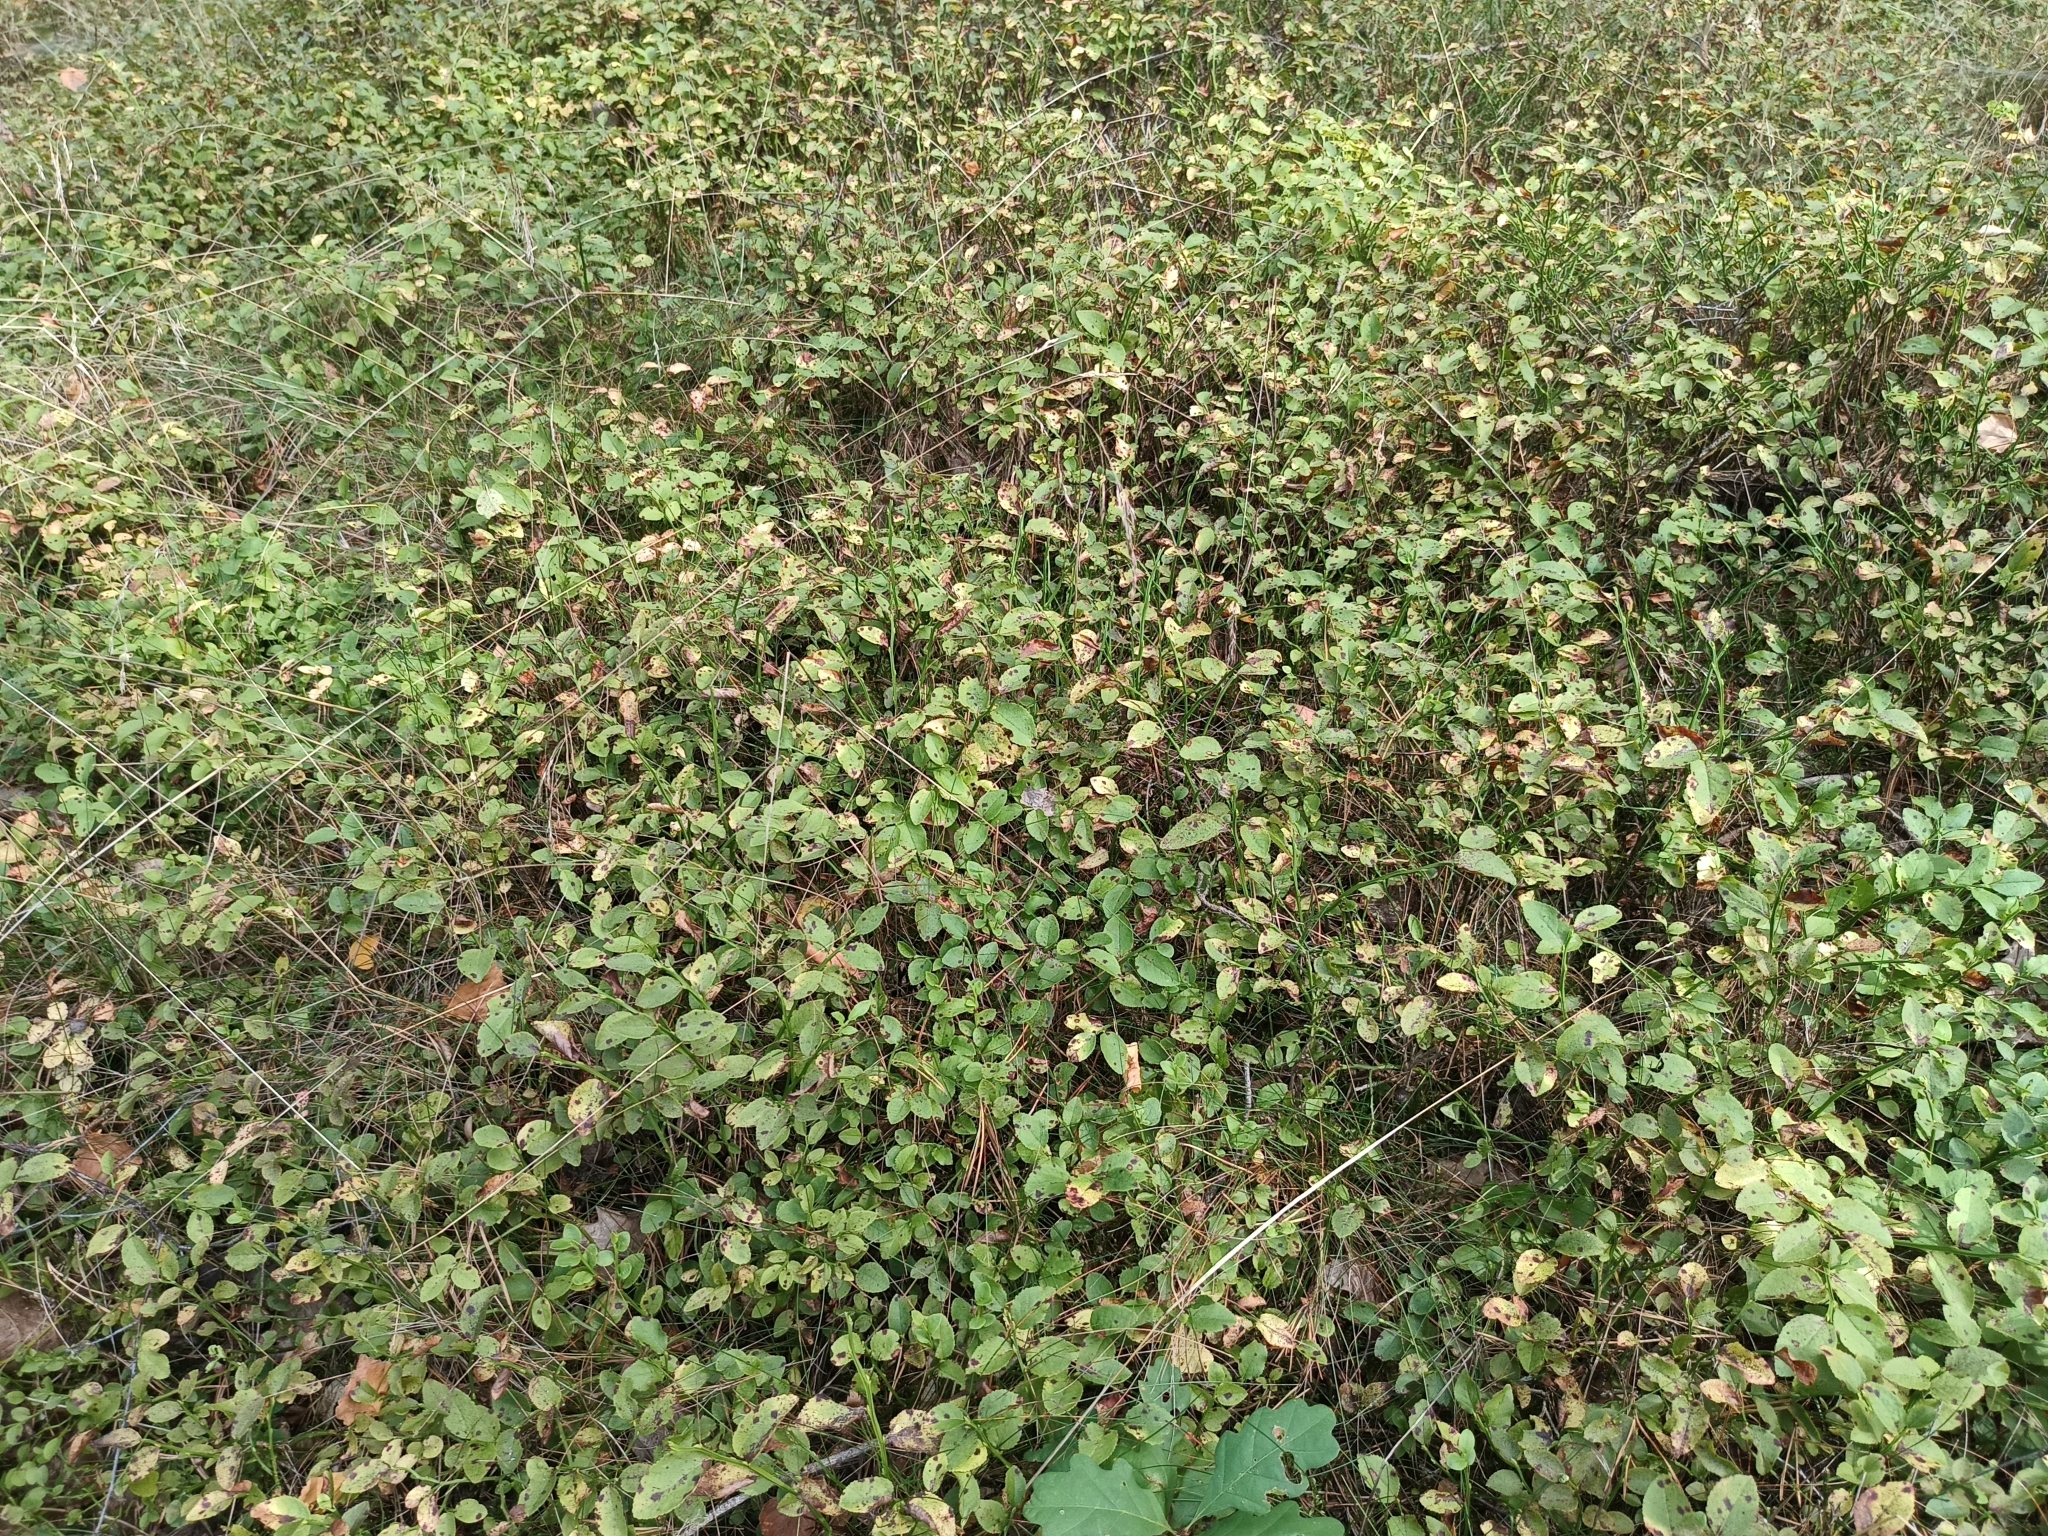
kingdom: Plantae
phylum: Tracheophyta
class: Magnoliopsida
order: Ericales
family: Ericaceae
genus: Vaccinium
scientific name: Vaccinium myrtillus
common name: Bilberry
